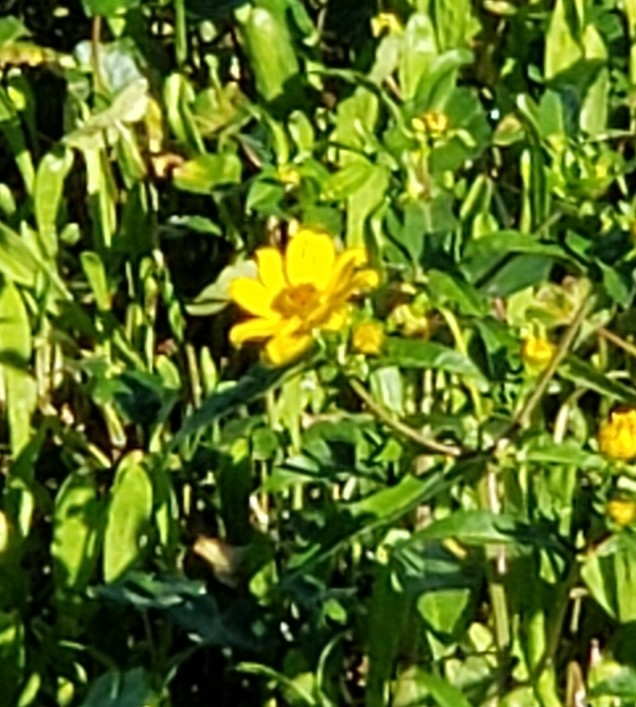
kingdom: Plantae
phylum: Tracheophyta
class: Magnoliopsida
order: Asterales
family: Asteraceae
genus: Bidens
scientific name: Bidens laevis
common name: Larger bur-marigold
